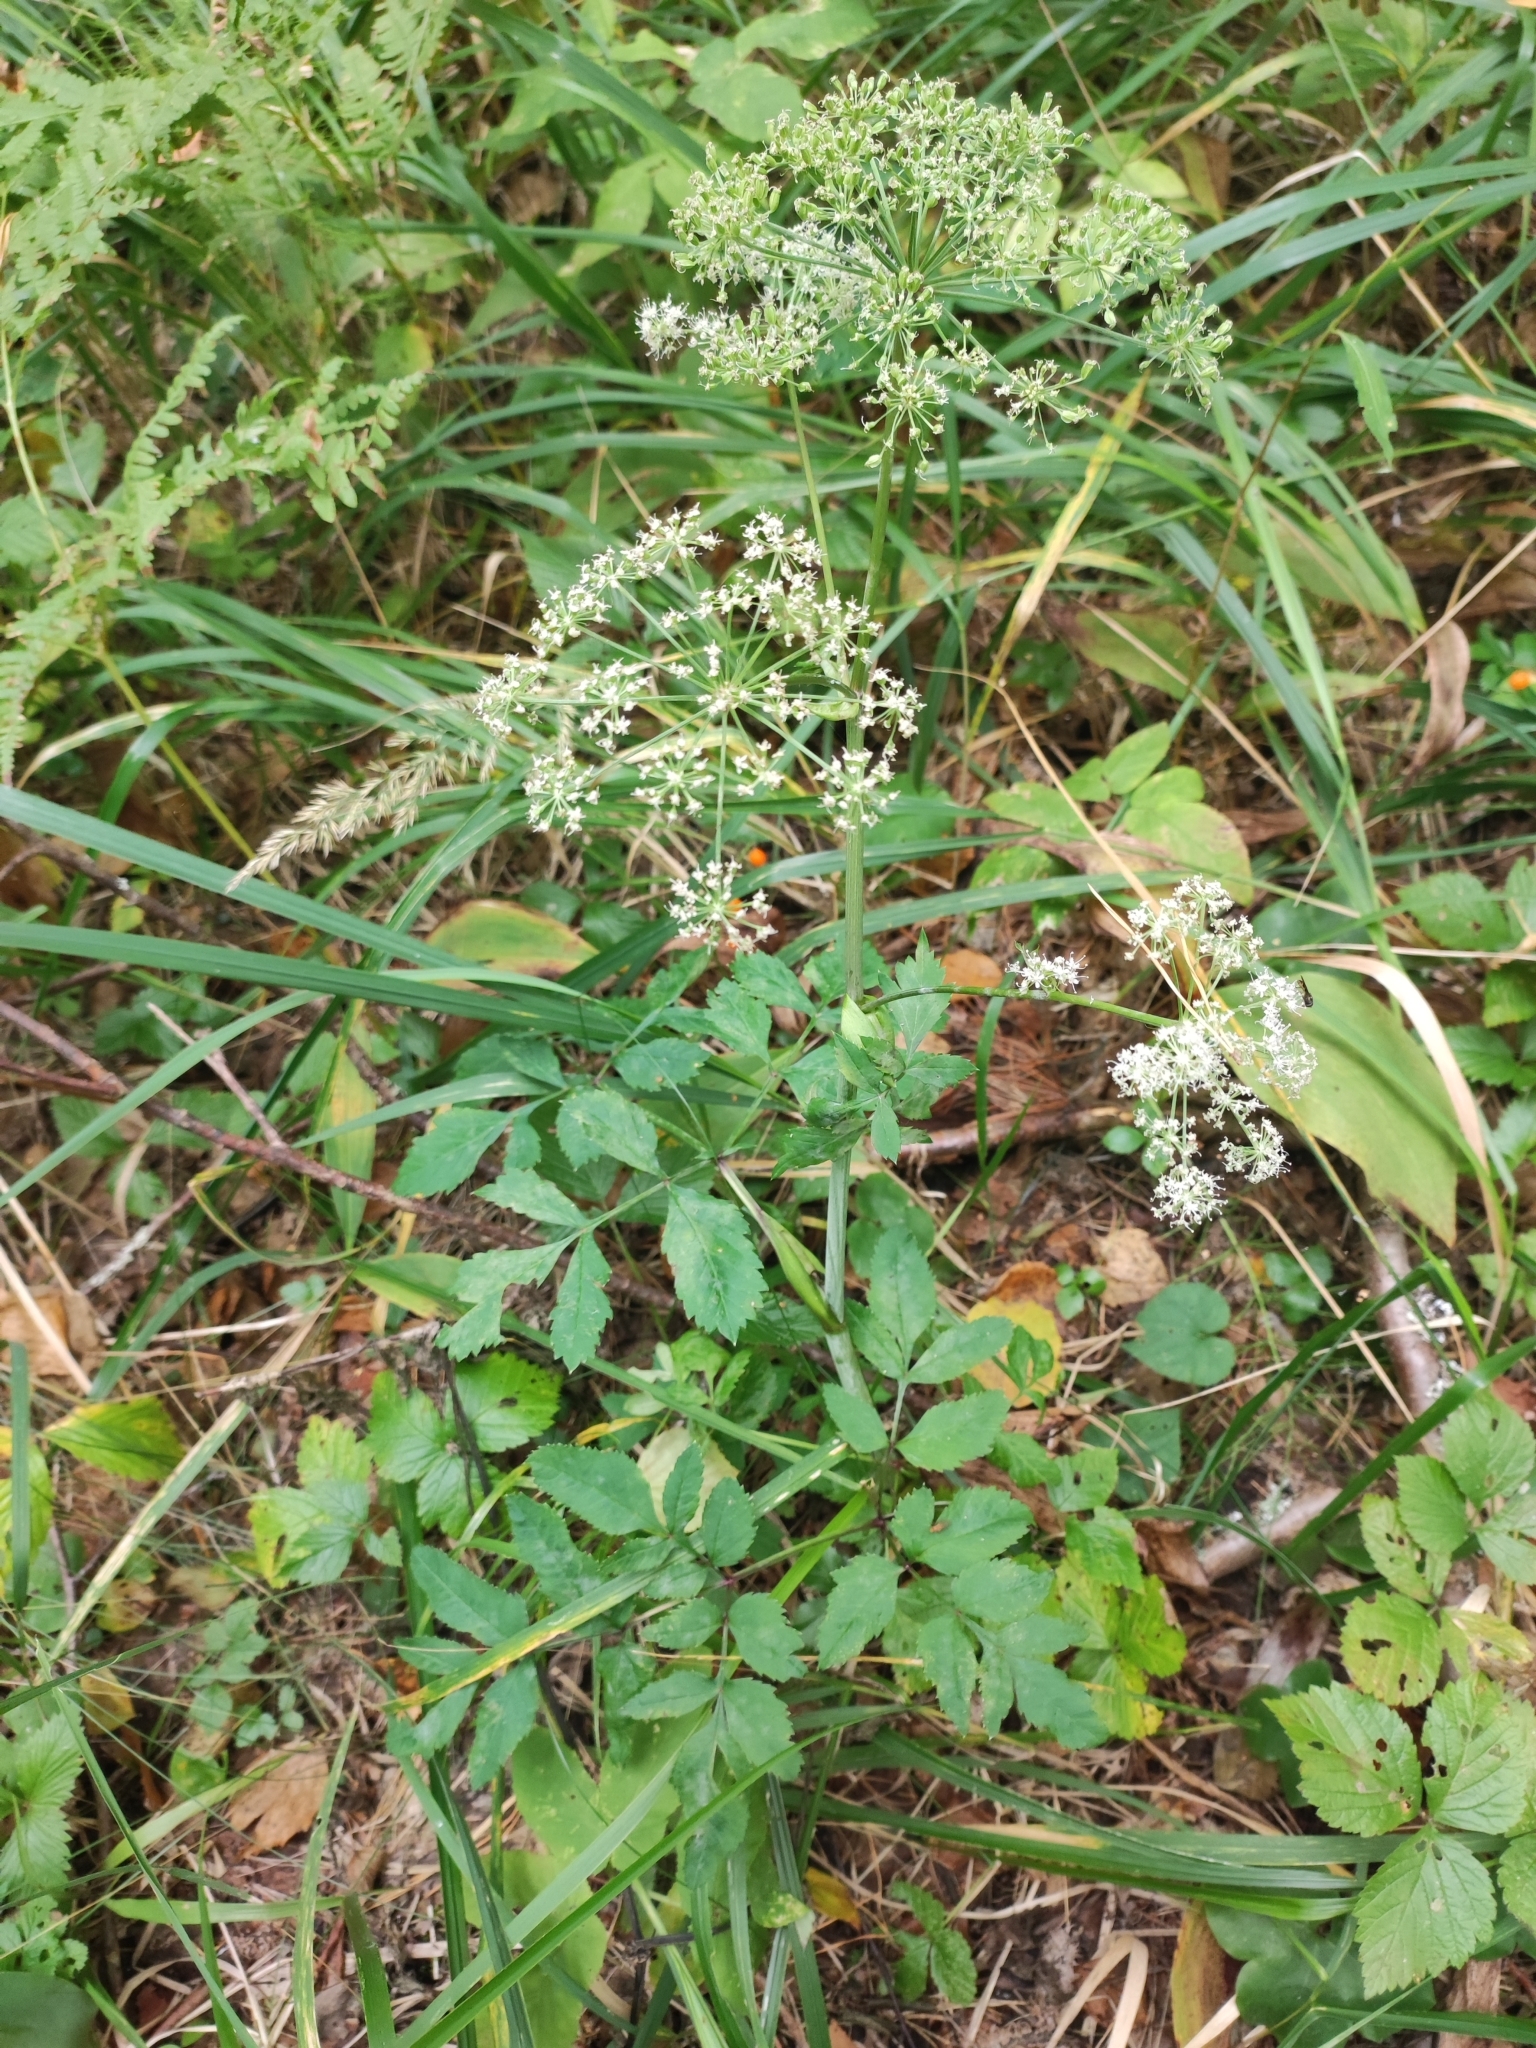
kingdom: Plantae
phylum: Tracheophyta
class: Magnoliopsida
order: Apiales
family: Apiaceae
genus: Angelica
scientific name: Angelica sylvestris
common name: Wild angelica
